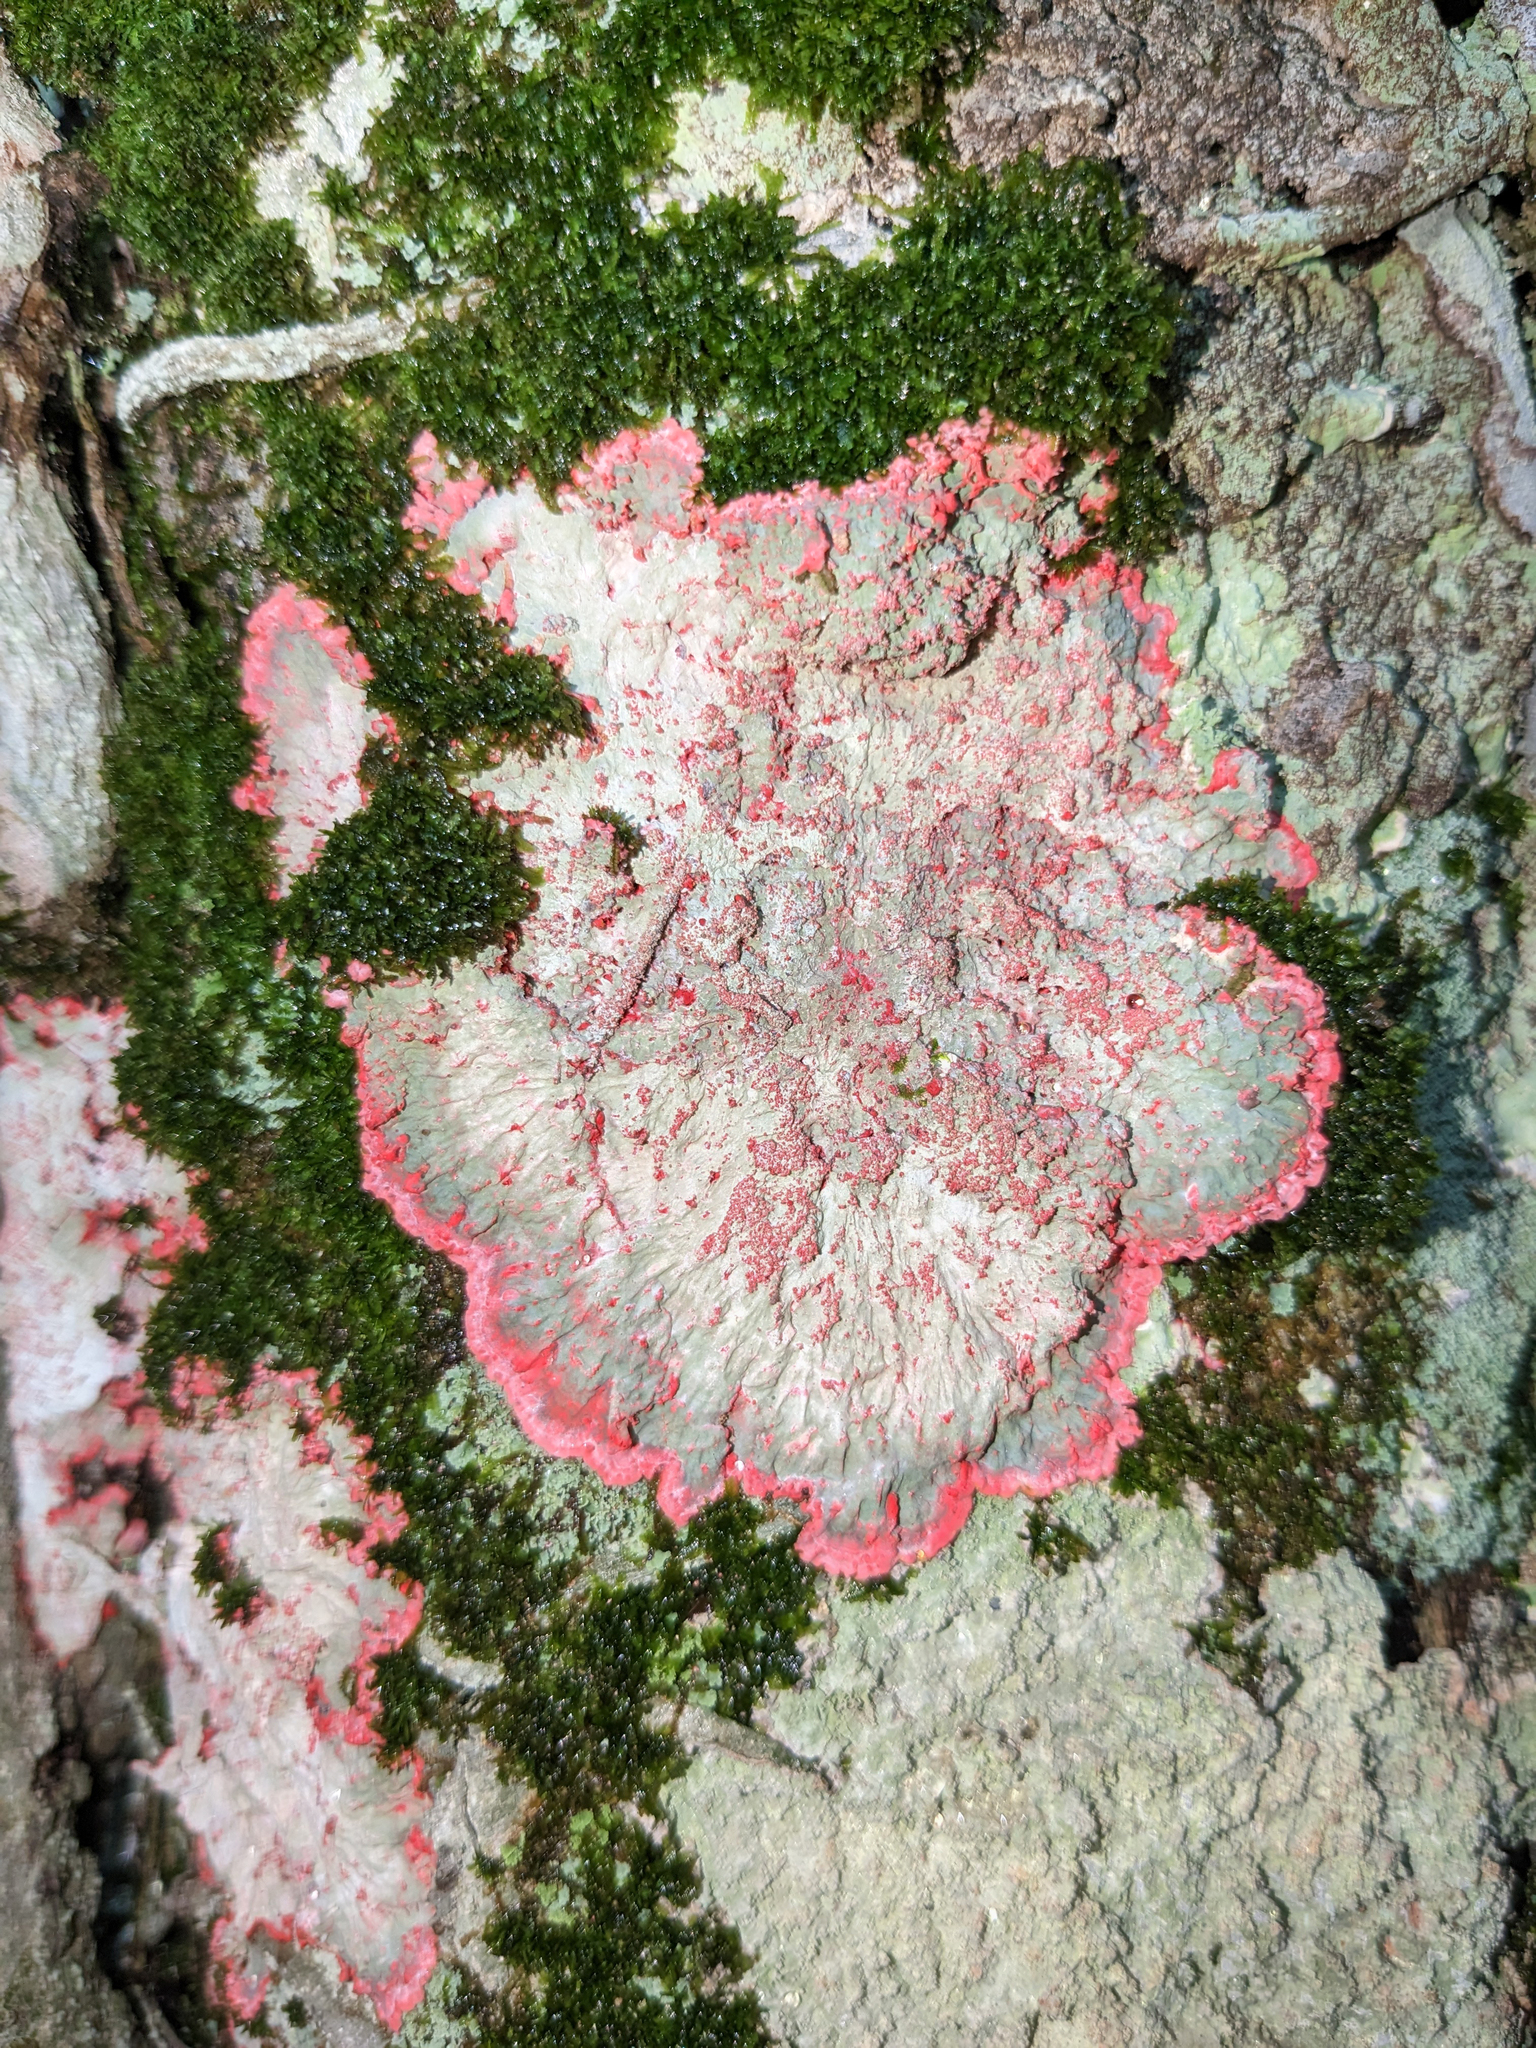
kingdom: Fungi
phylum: Ascomycota
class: Arthoniomycetes
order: Arthoniales
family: Arthoniaceae
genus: Herpothallon
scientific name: Herpothallon rubrocinctum
